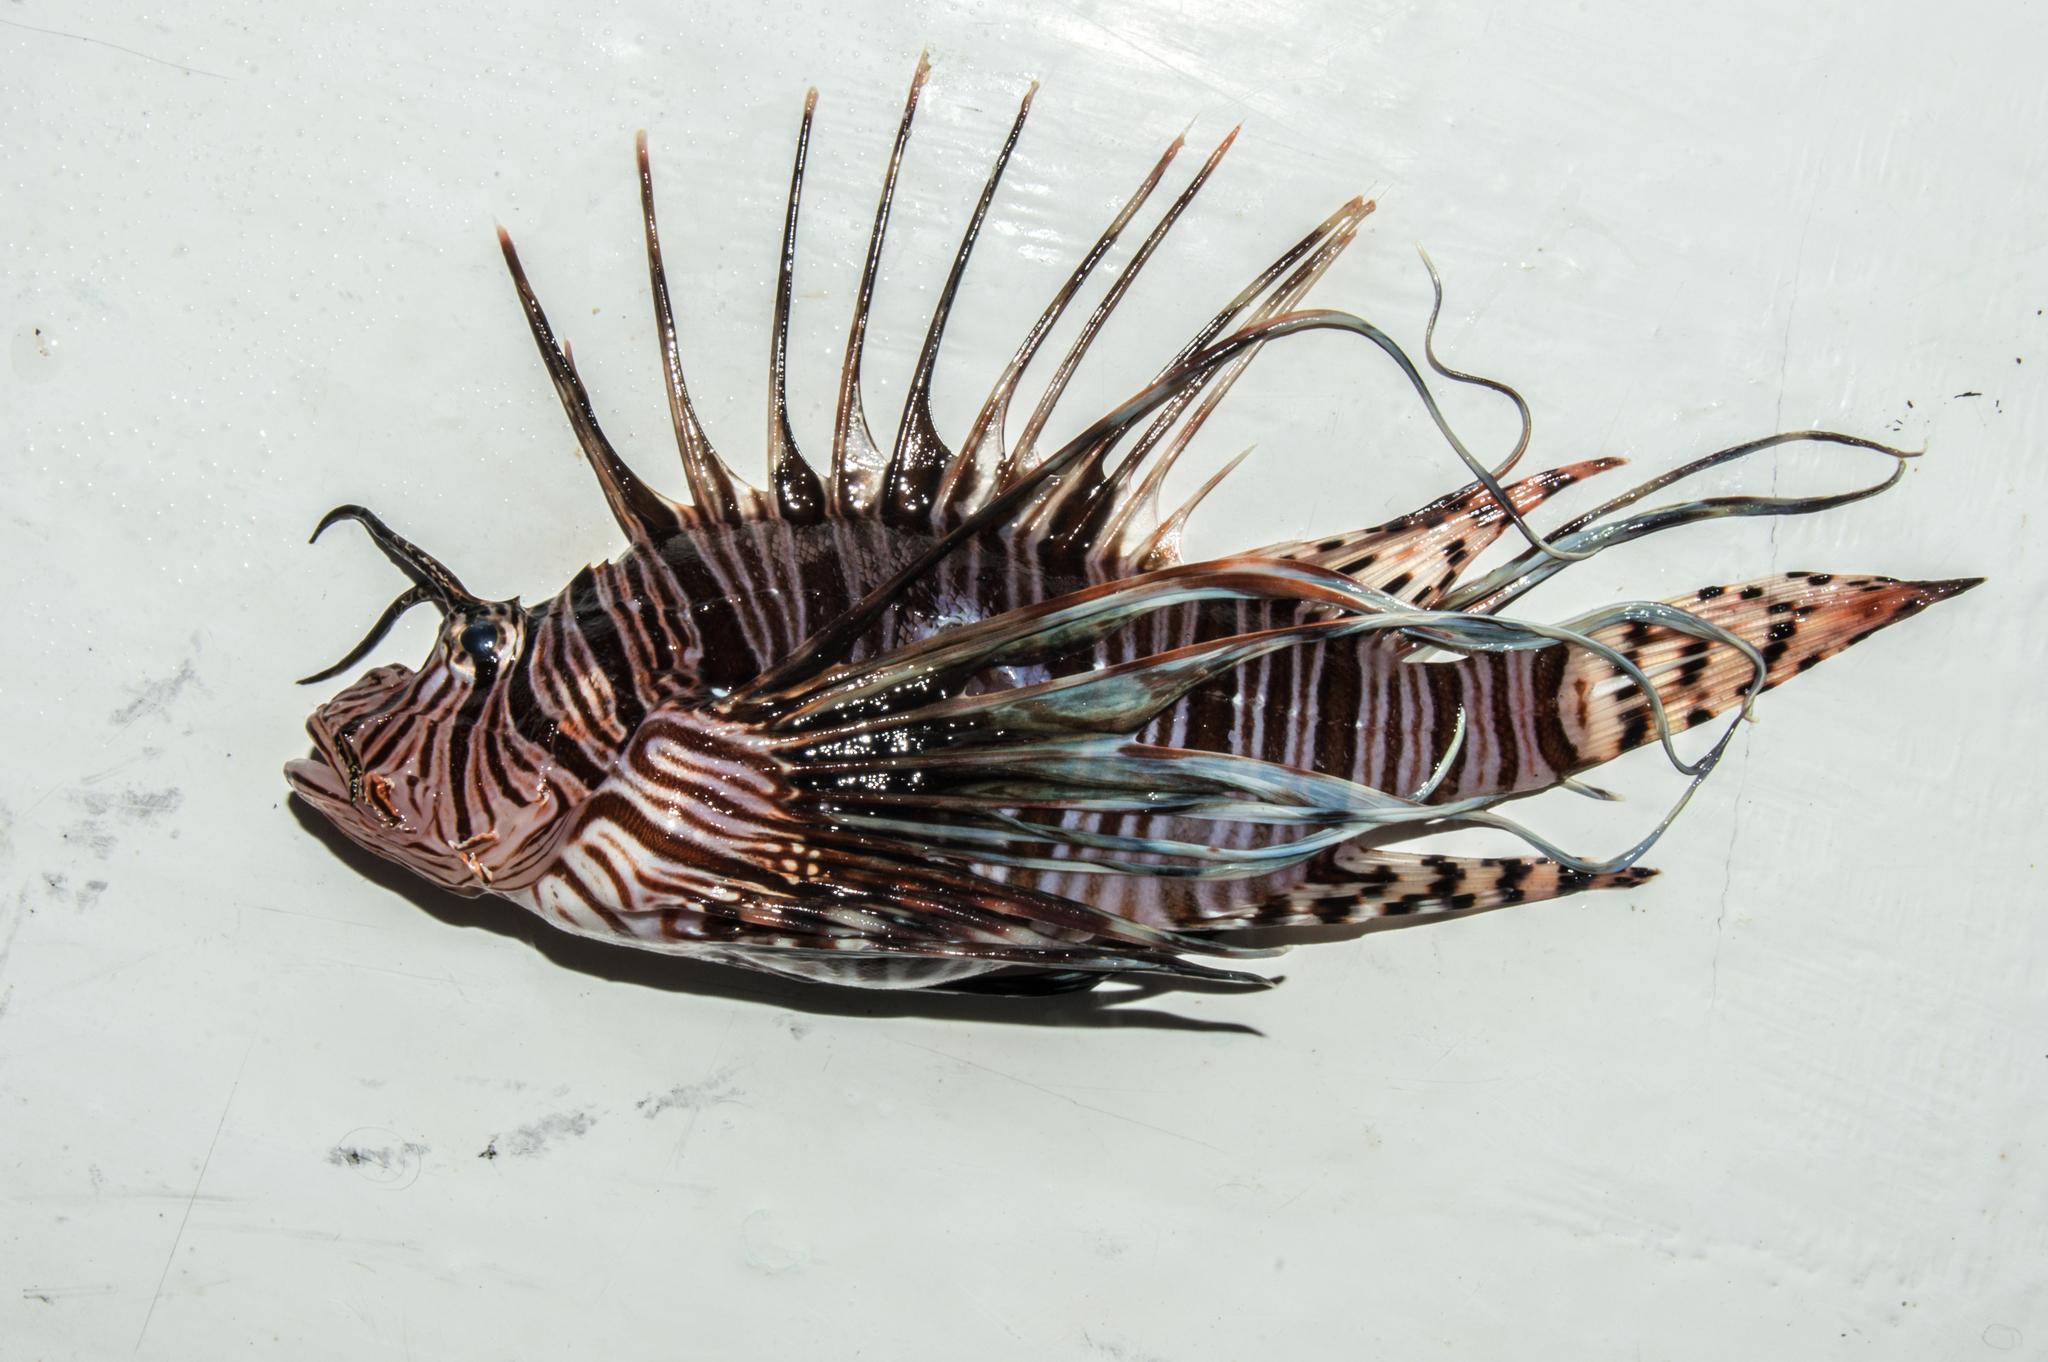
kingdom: Animalia
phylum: Chordata
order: Scorpaeniformes
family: Scorpaenidae
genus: Pterois
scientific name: Pterois volitans
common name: Lionfish
